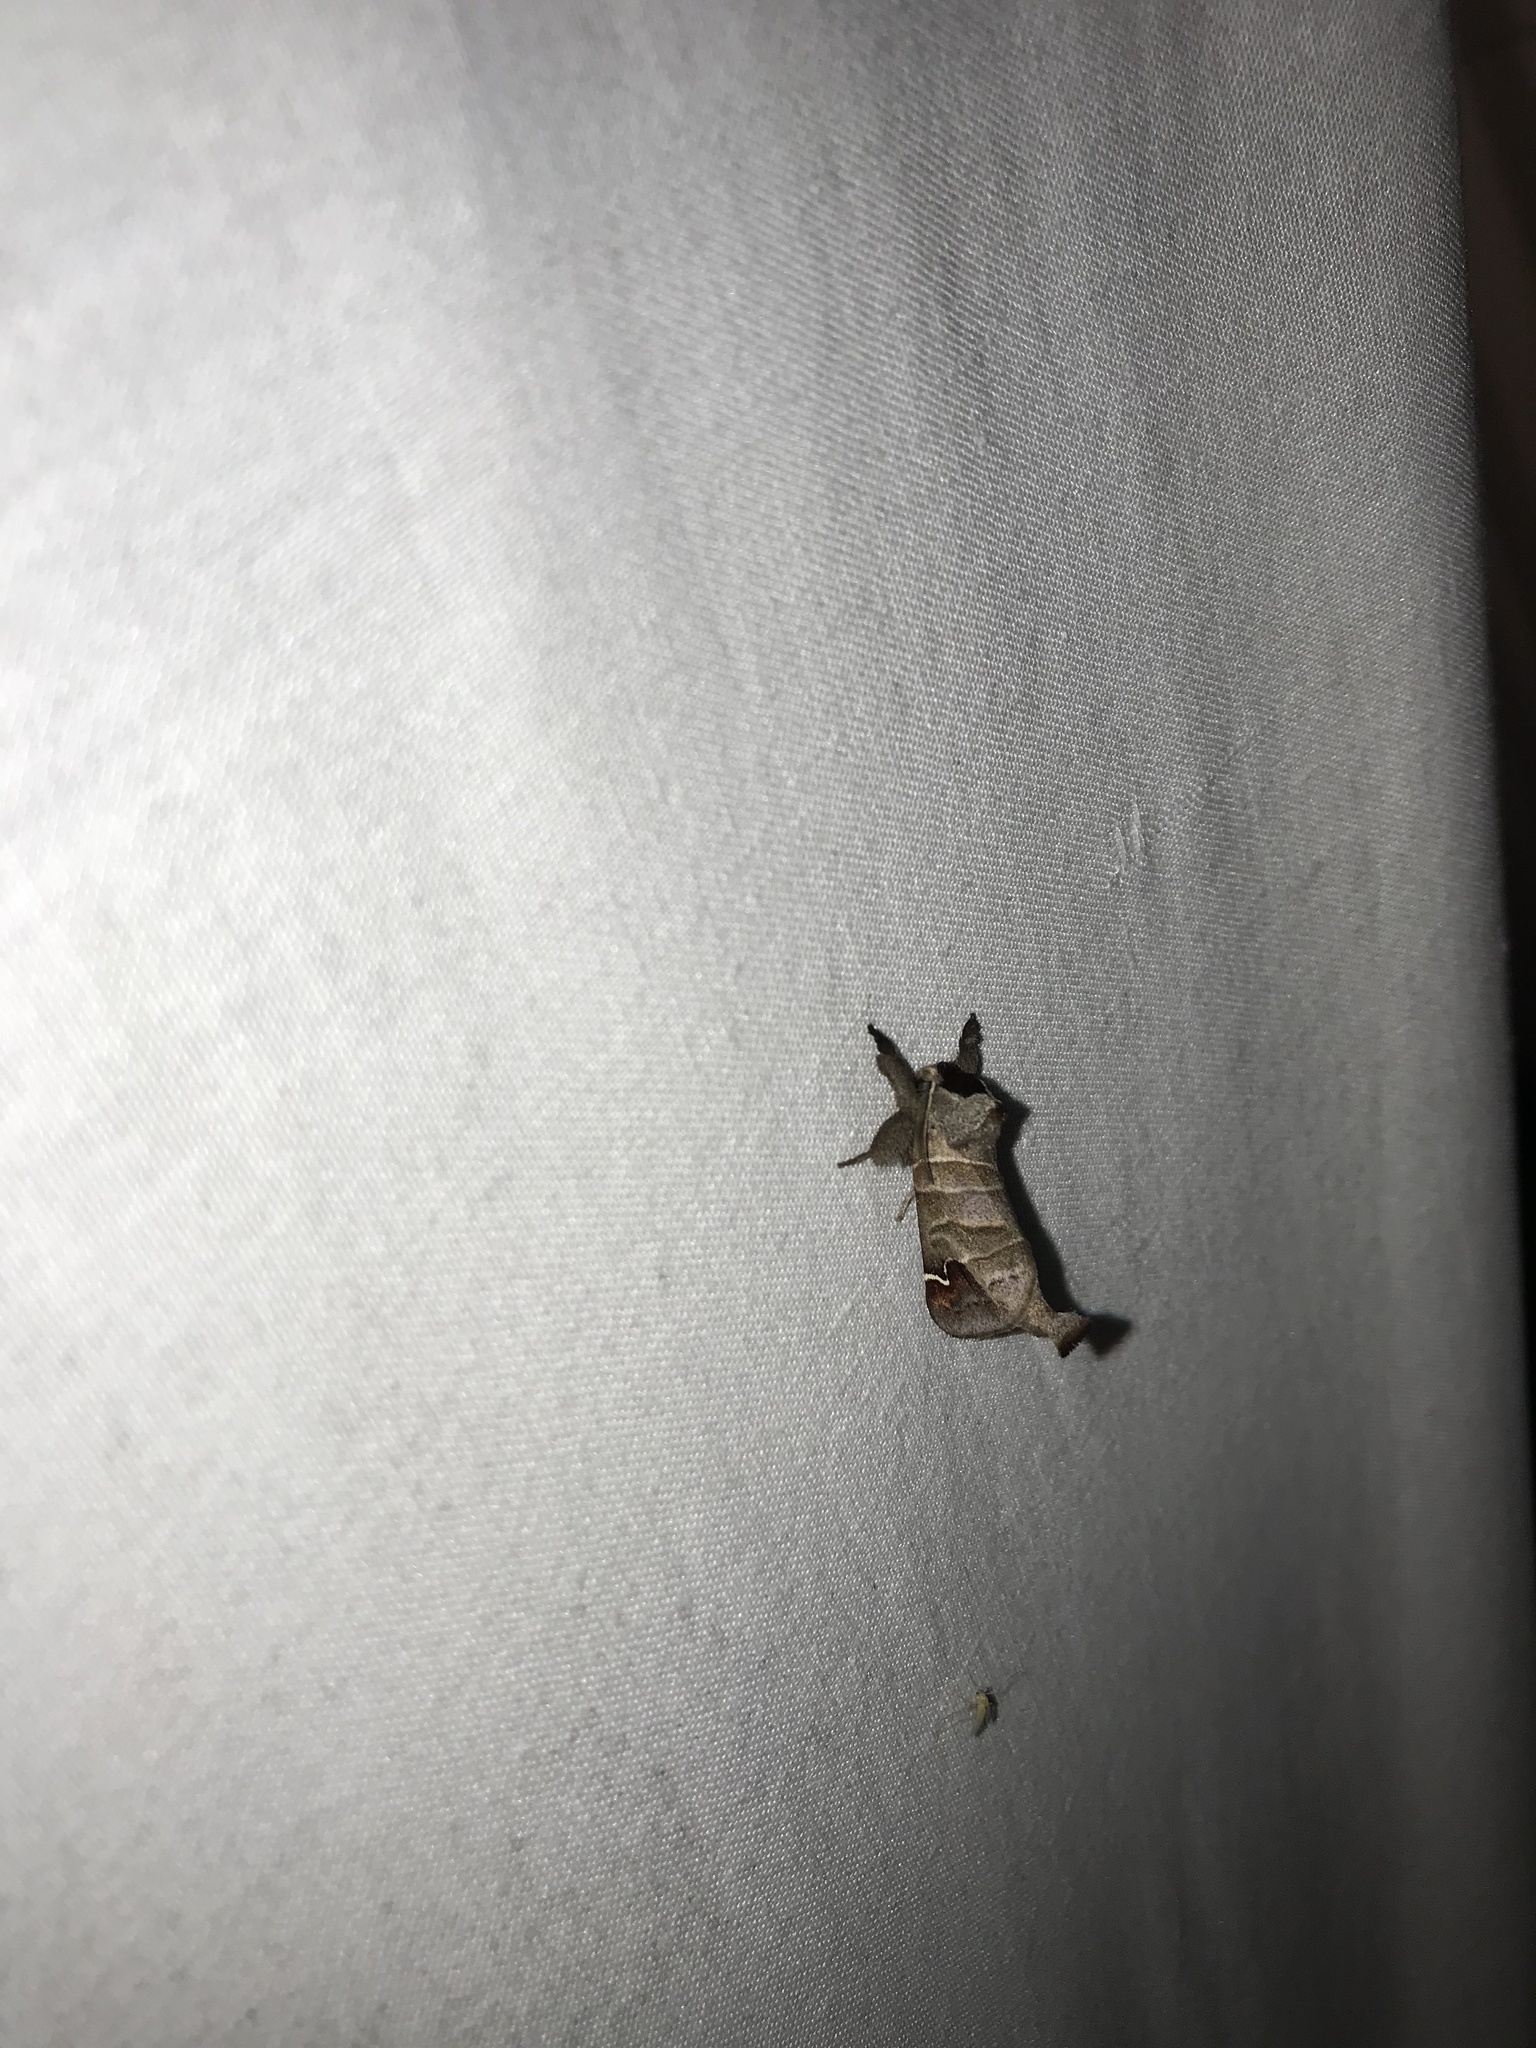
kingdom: Animalia
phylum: Arthropoda
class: Insecta
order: Lepidoptera
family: Notodontidae
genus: Clostera
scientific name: Clostera albosigma
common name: Sigmoid prominent
